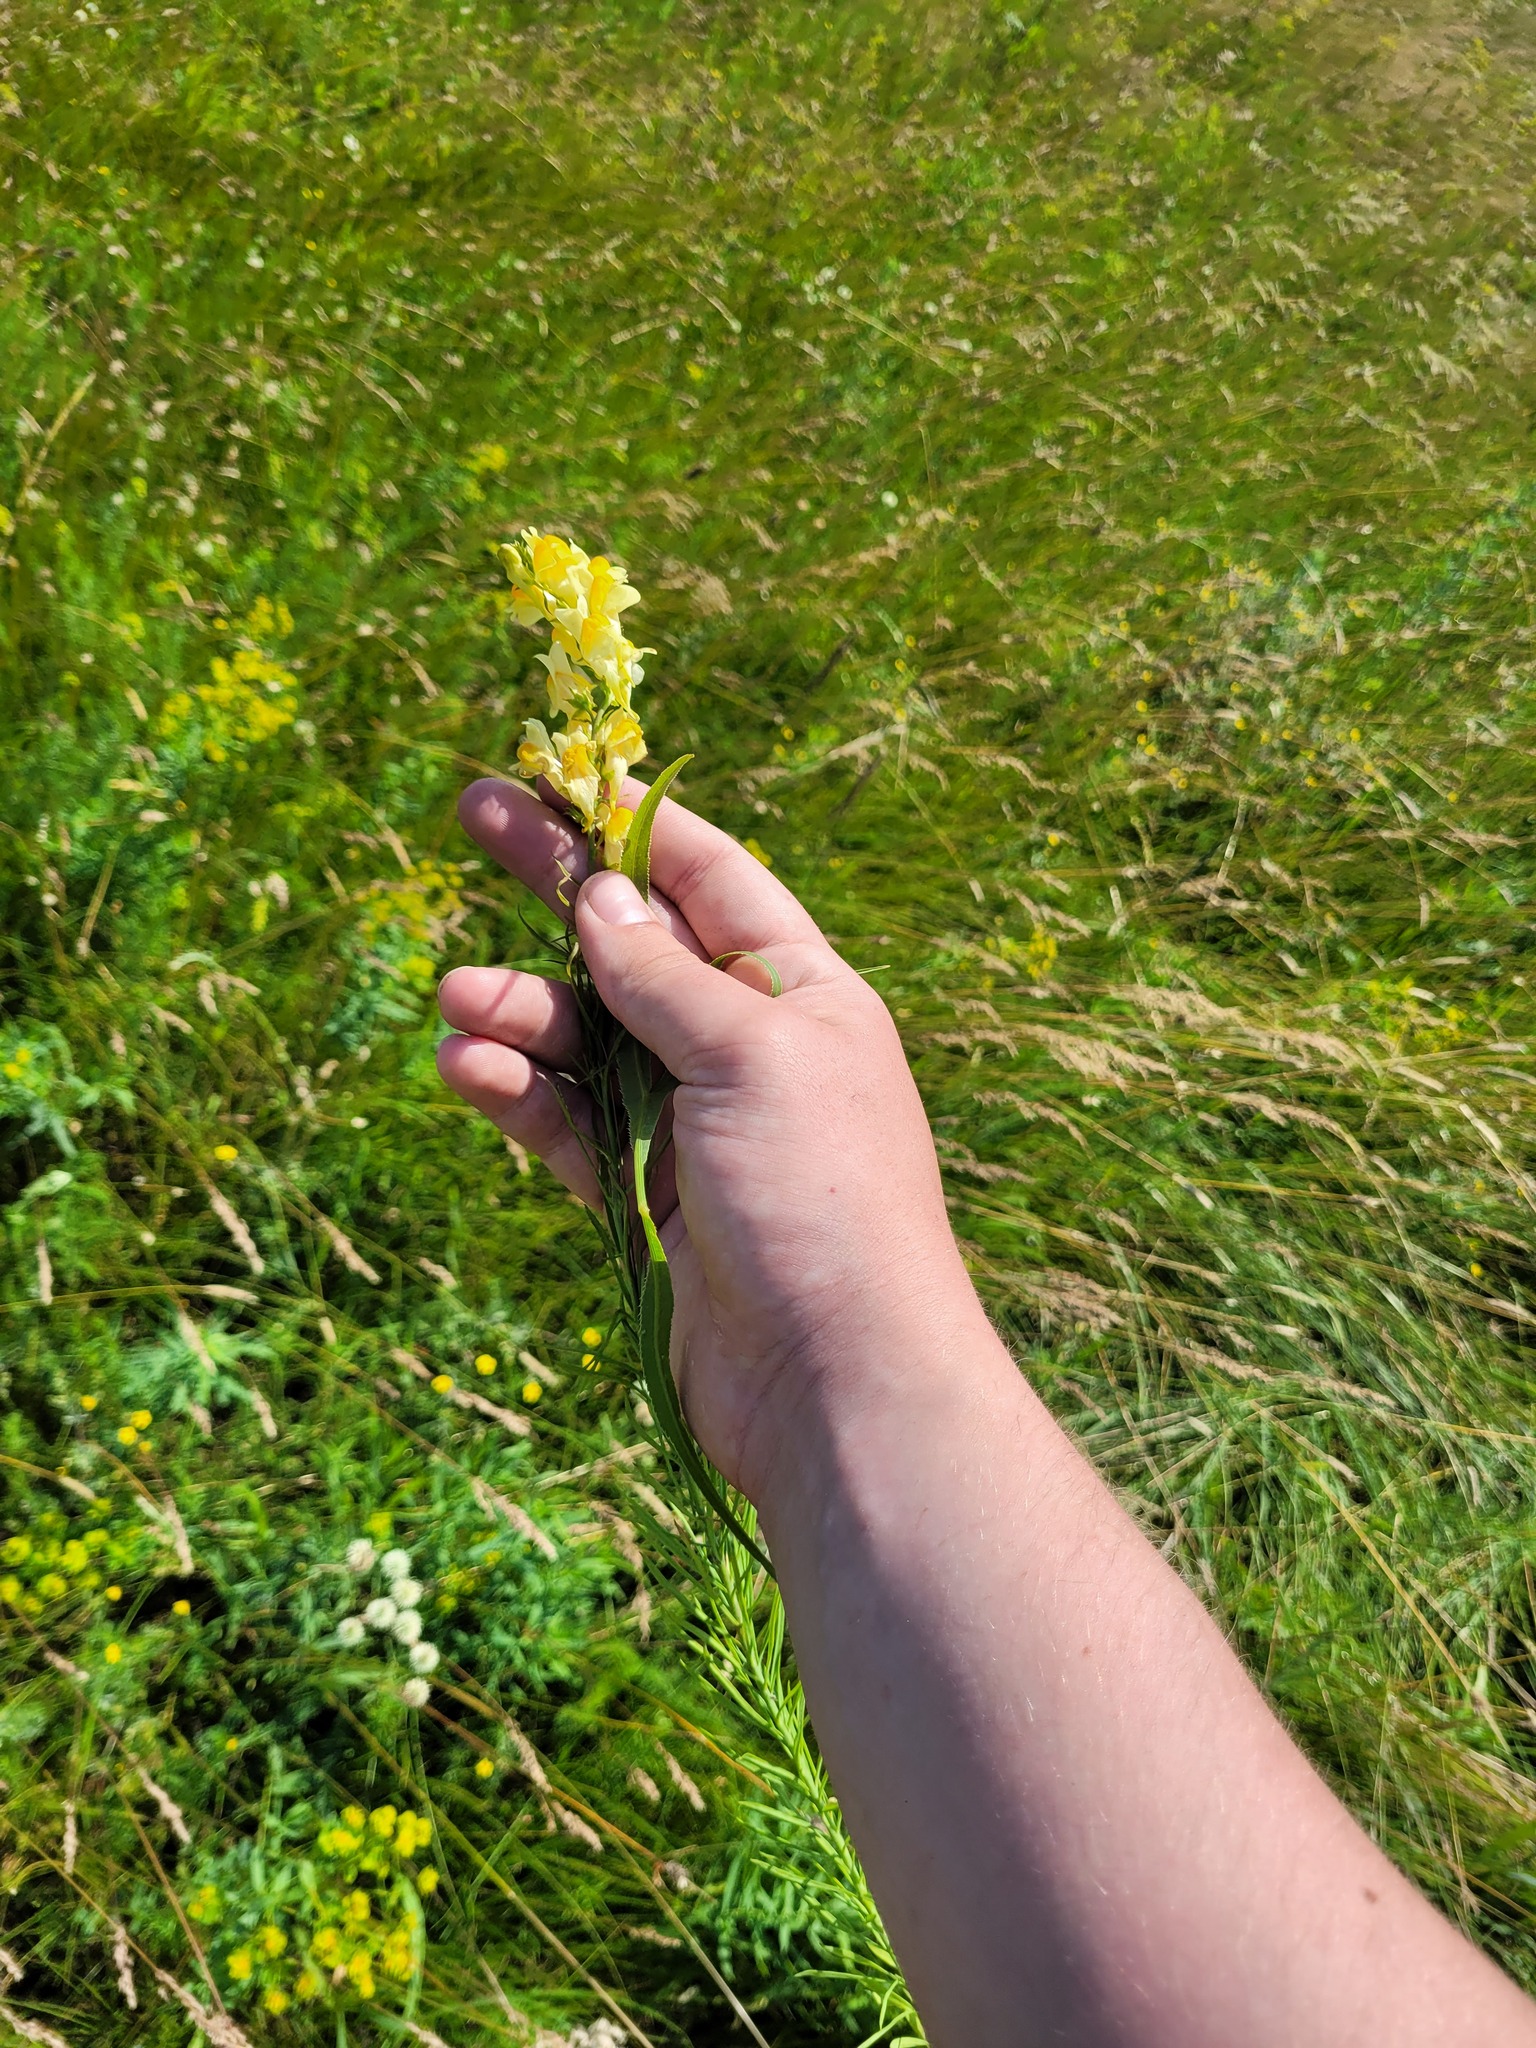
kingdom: Plantae
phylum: Tracheophyta
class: Magnoliopsida
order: Lamiales
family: Plantaginaceae
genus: Linaria
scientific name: Linaria vulgaris
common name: Butter and eggs
